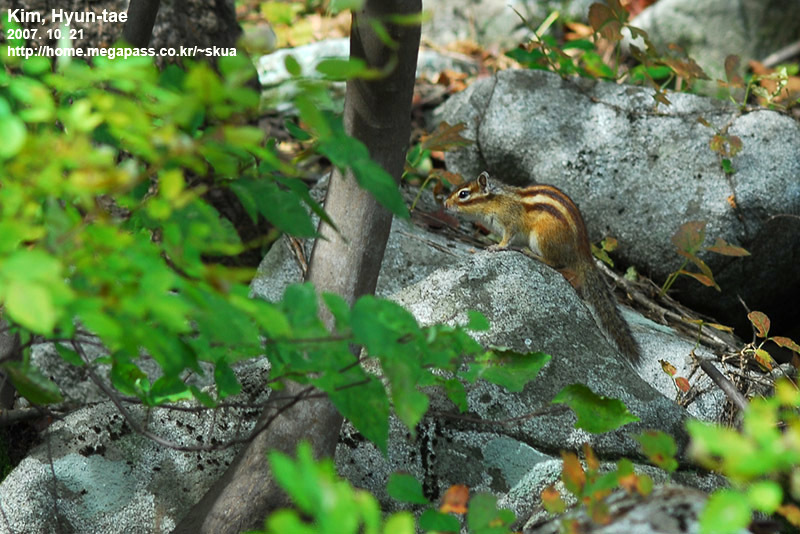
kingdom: Animalia
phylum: Chordata
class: Mammalia
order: Rodentia
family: Sciuridae
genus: Tamias
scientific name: Tamias sibiricus
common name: Siberian chipmunk
